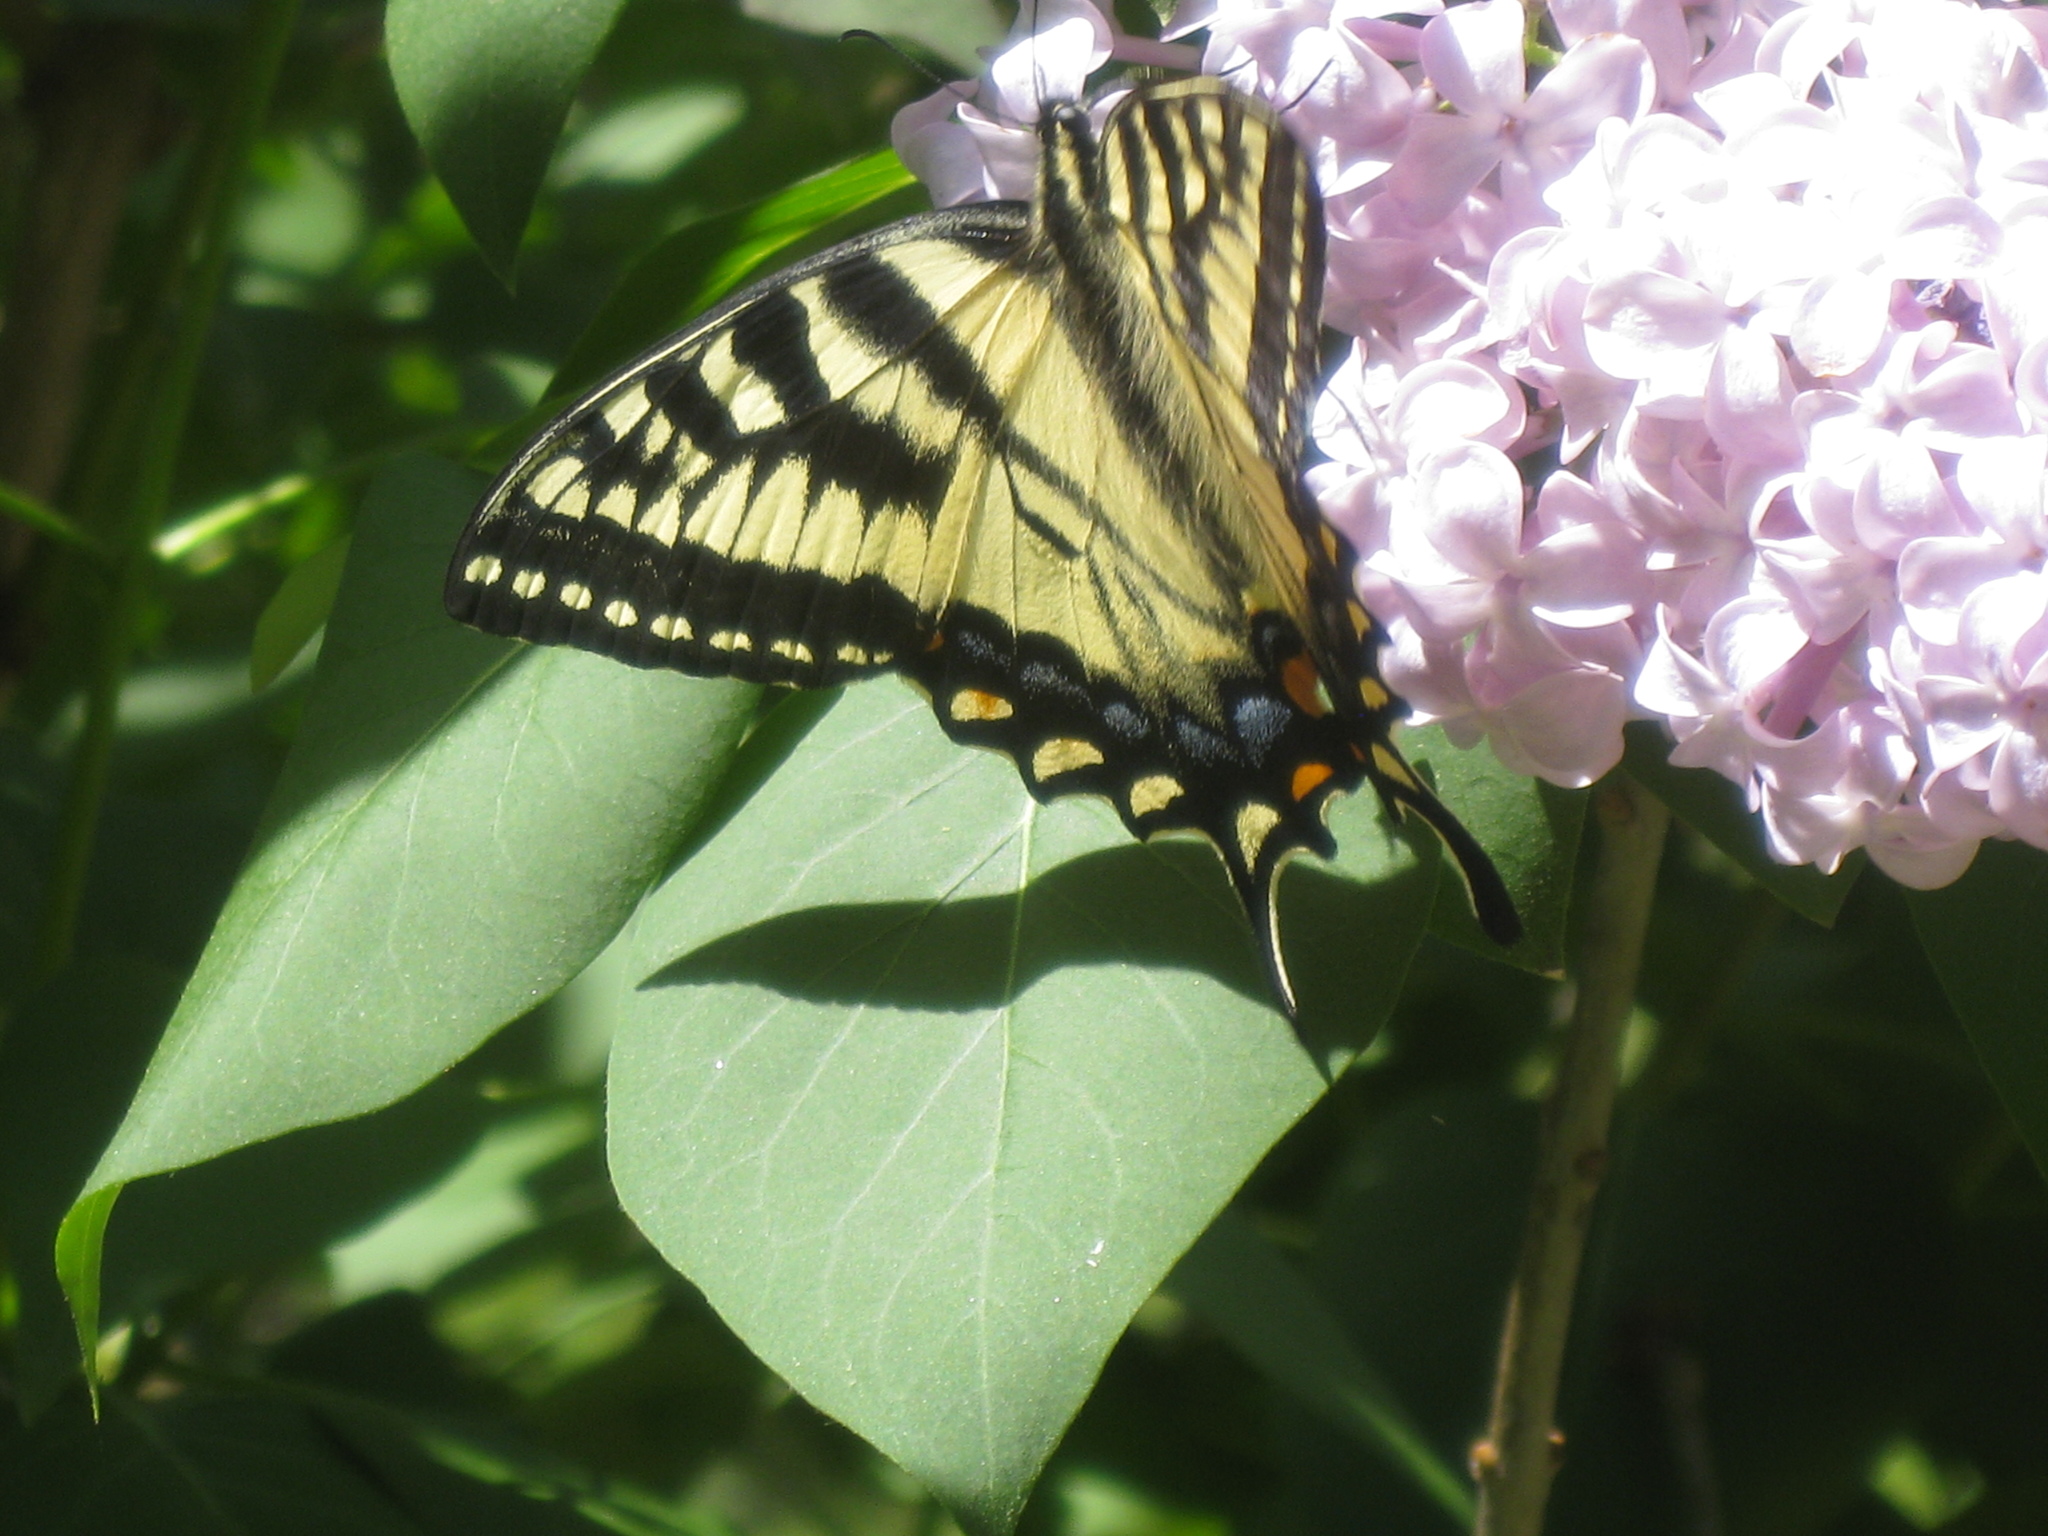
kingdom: Animalia
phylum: Arthropoda
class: Insecta
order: Lepidoptera
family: Papilionidae
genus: Papilio
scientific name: Papilio canadensis
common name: Canadian tiger swallowtail
